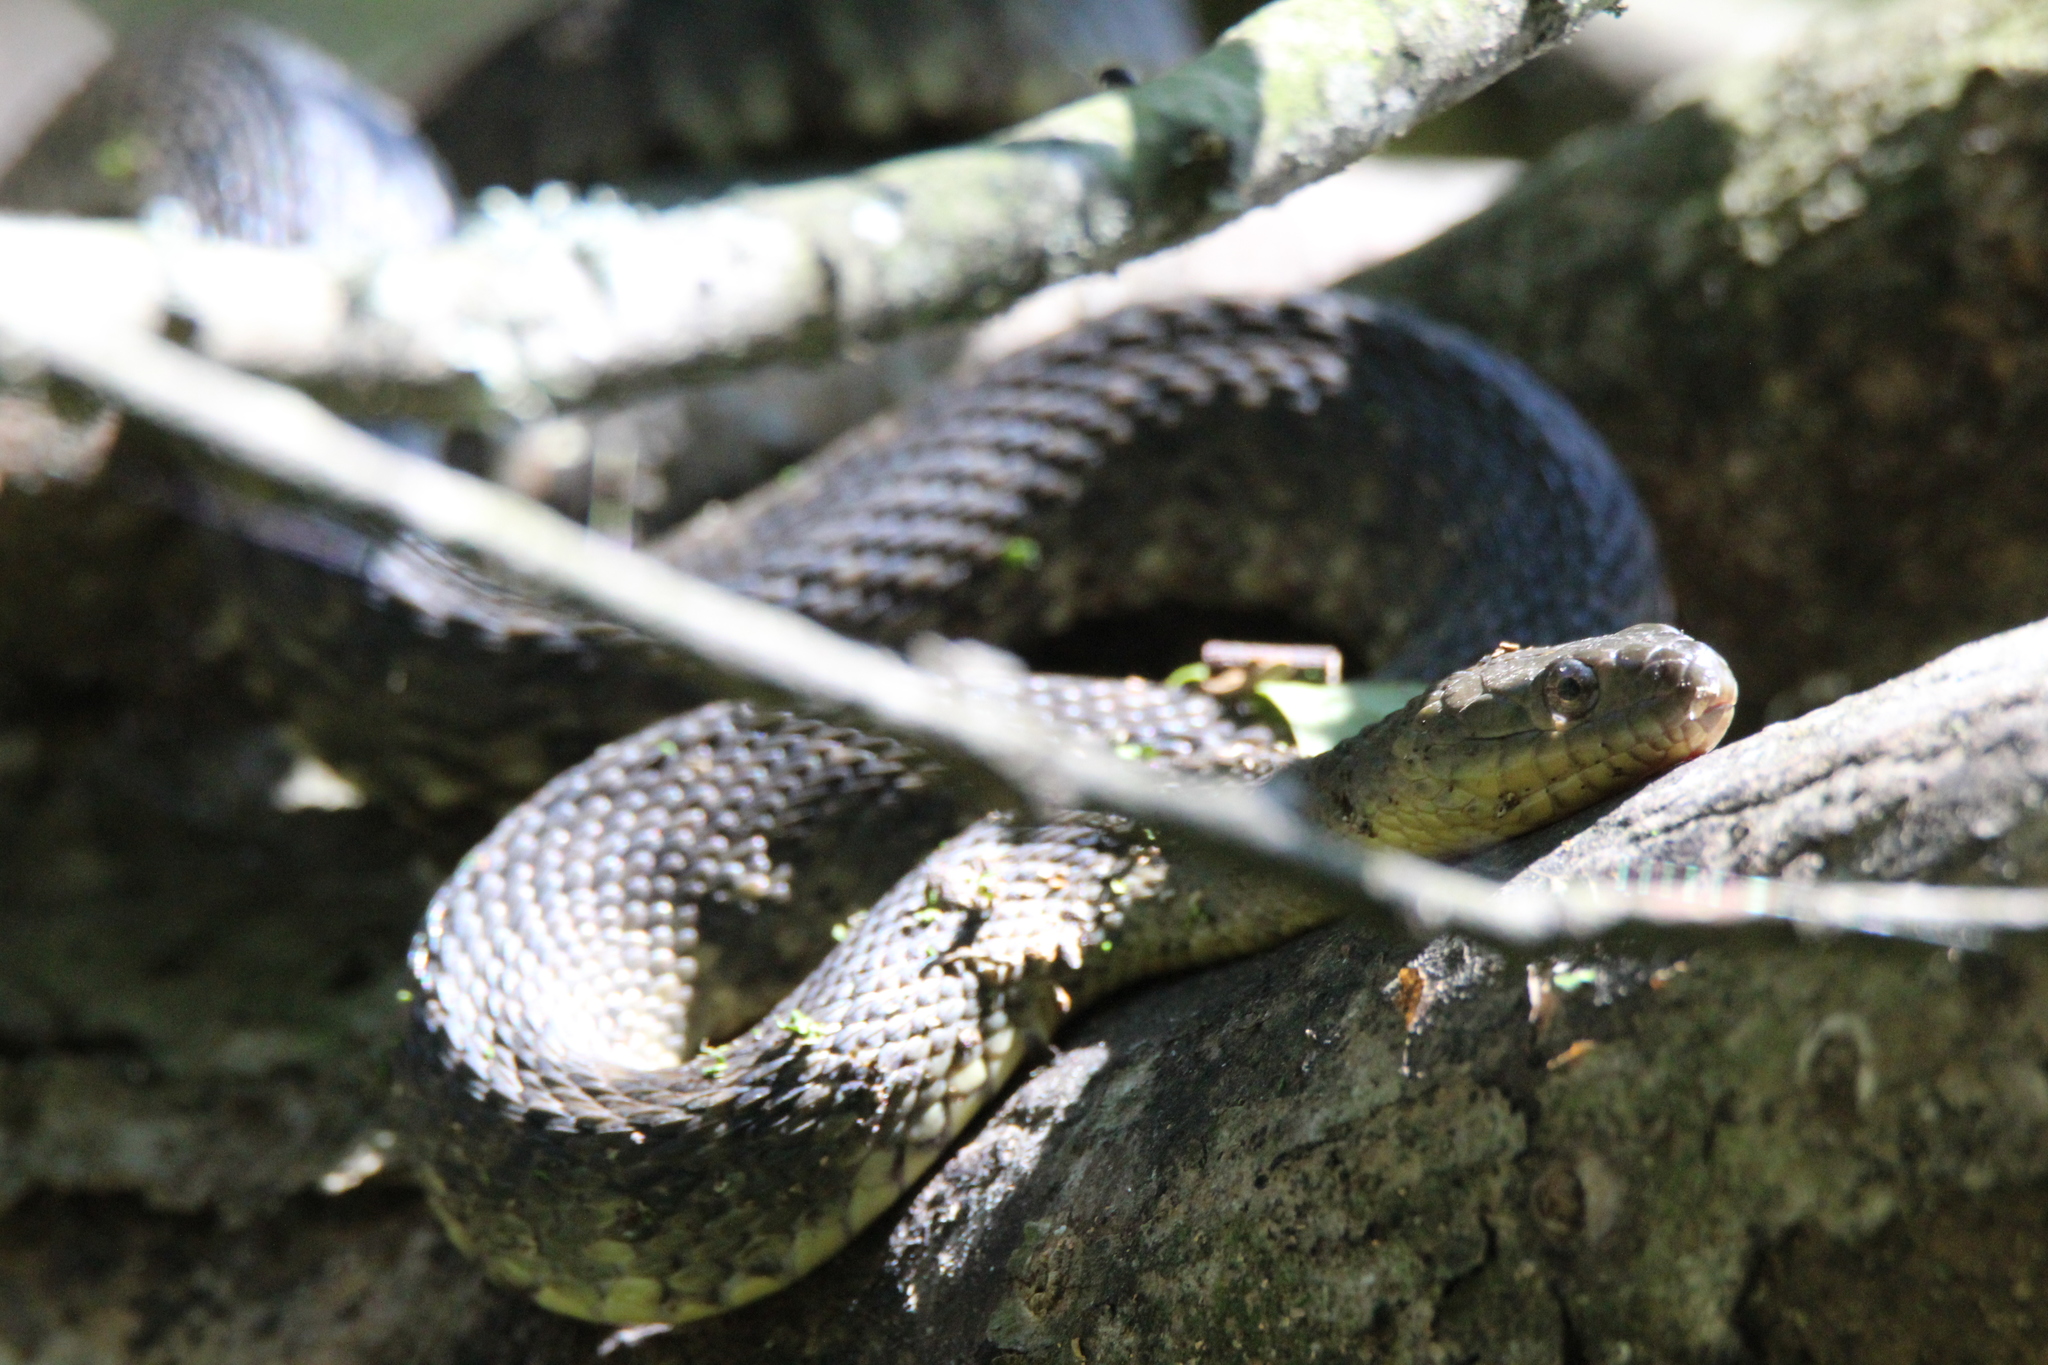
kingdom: Animalia
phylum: Chordata
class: Squamata
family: Colubridae
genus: Nerodia
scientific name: Nerodia cyclopion
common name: Mississippi green water snake
